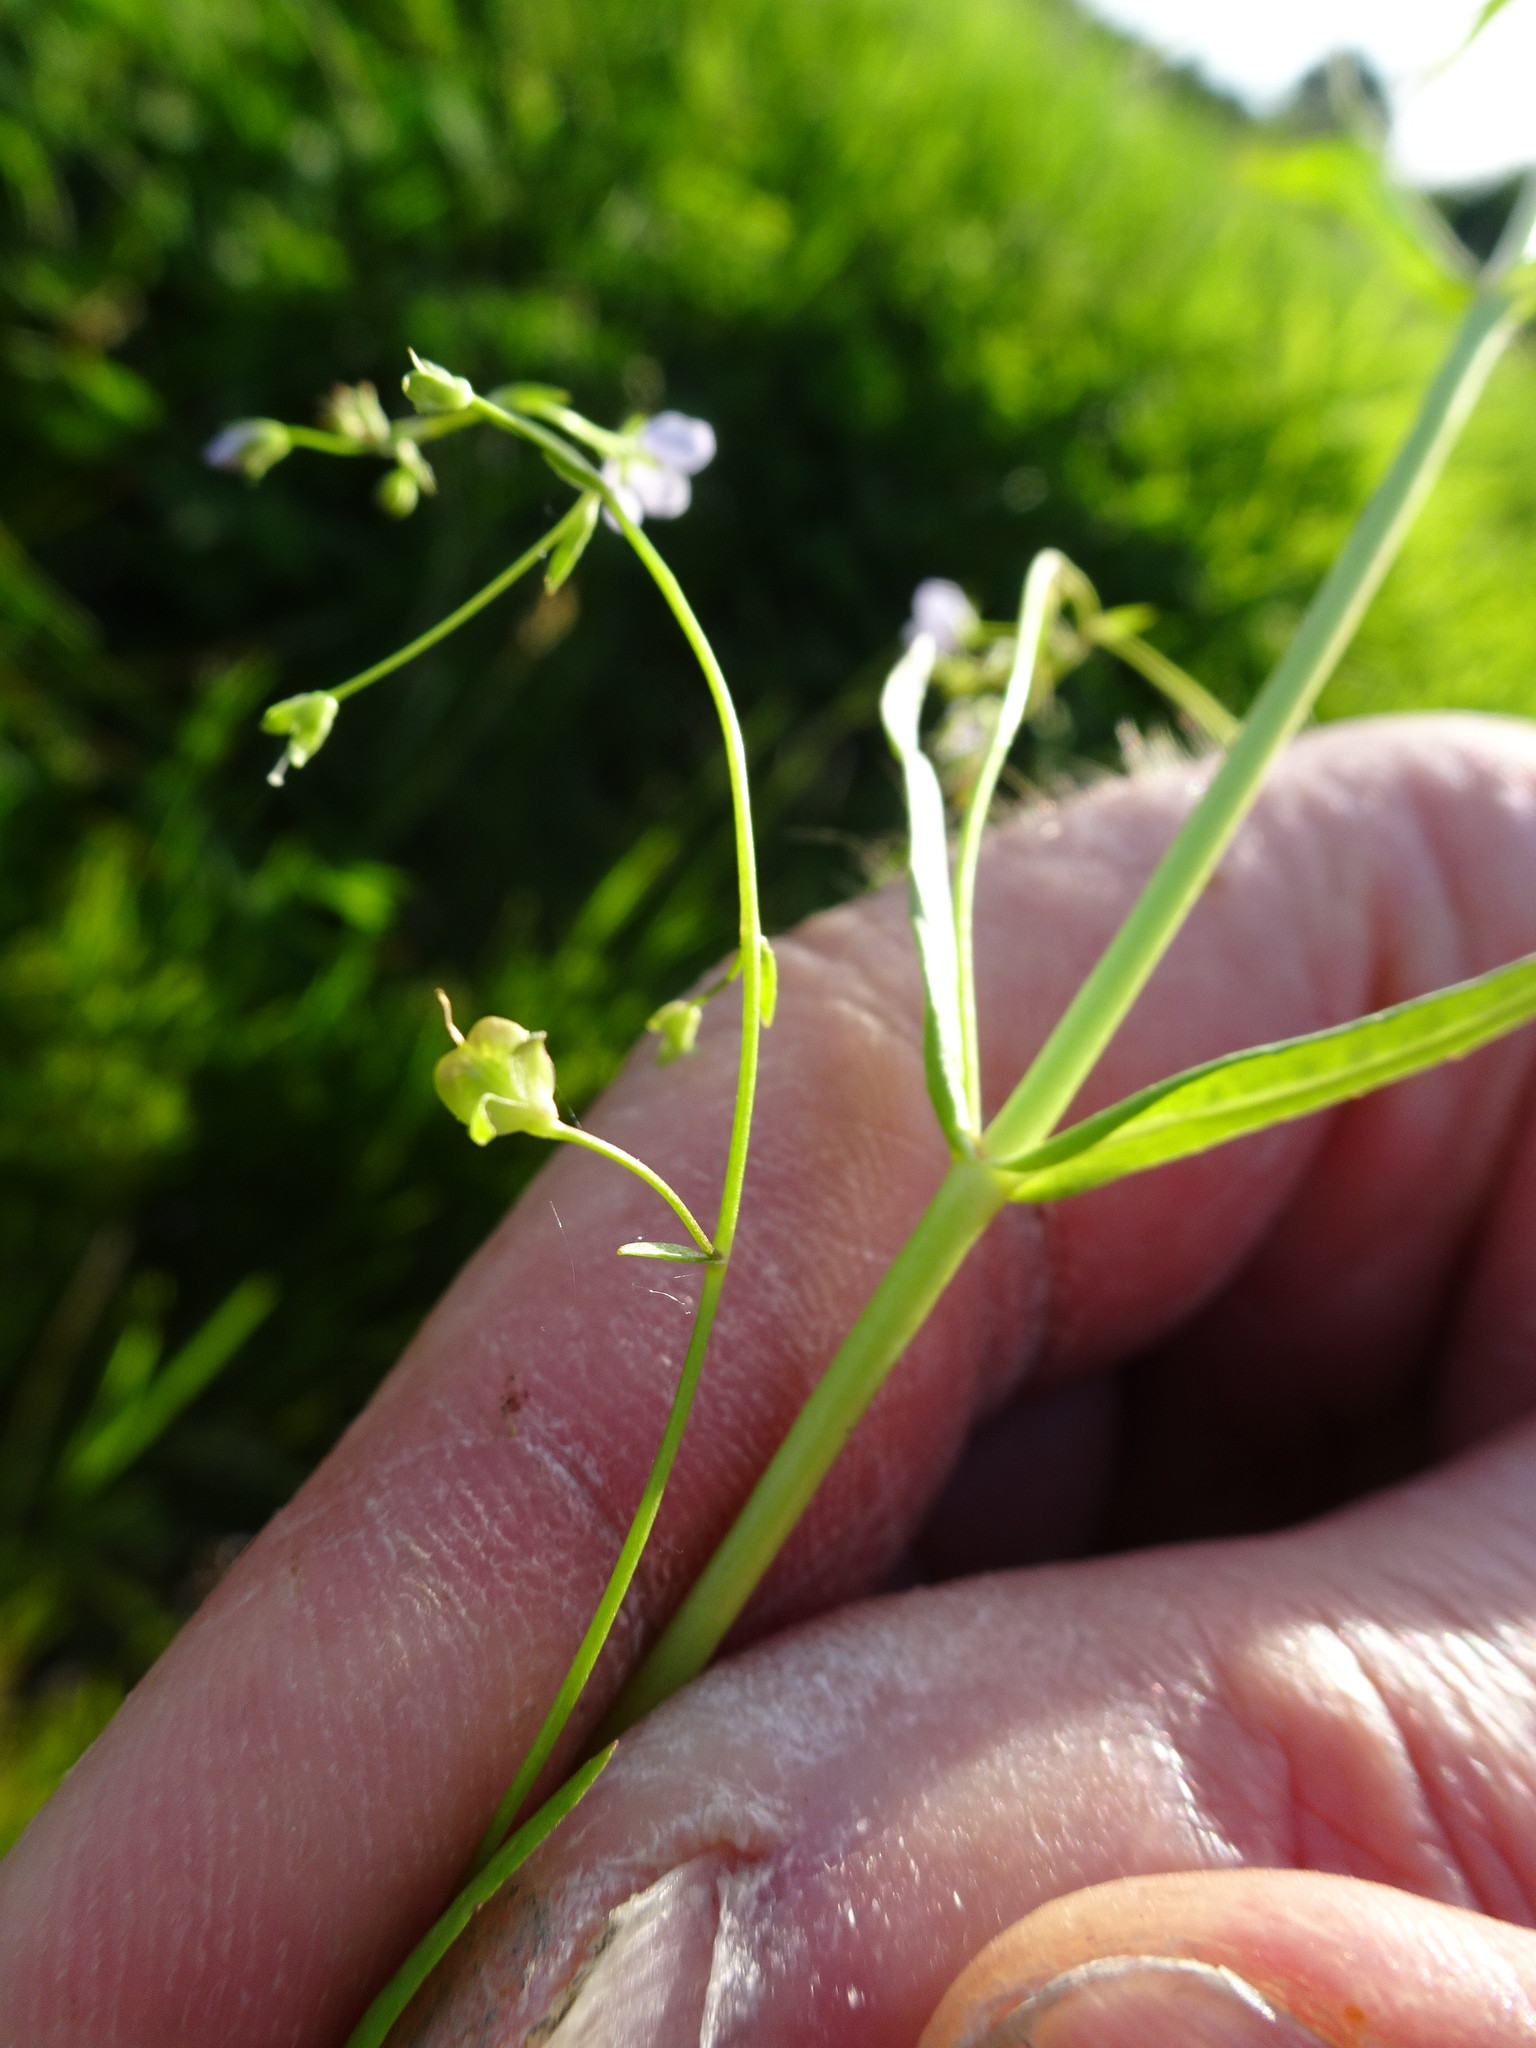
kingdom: Plantae
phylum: Tracheophyta
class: Magnoliopsida
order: Lamiales
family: Plantaginaceae
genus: Veronica
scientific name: Veronica scutellata
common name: Marsh speedwell
